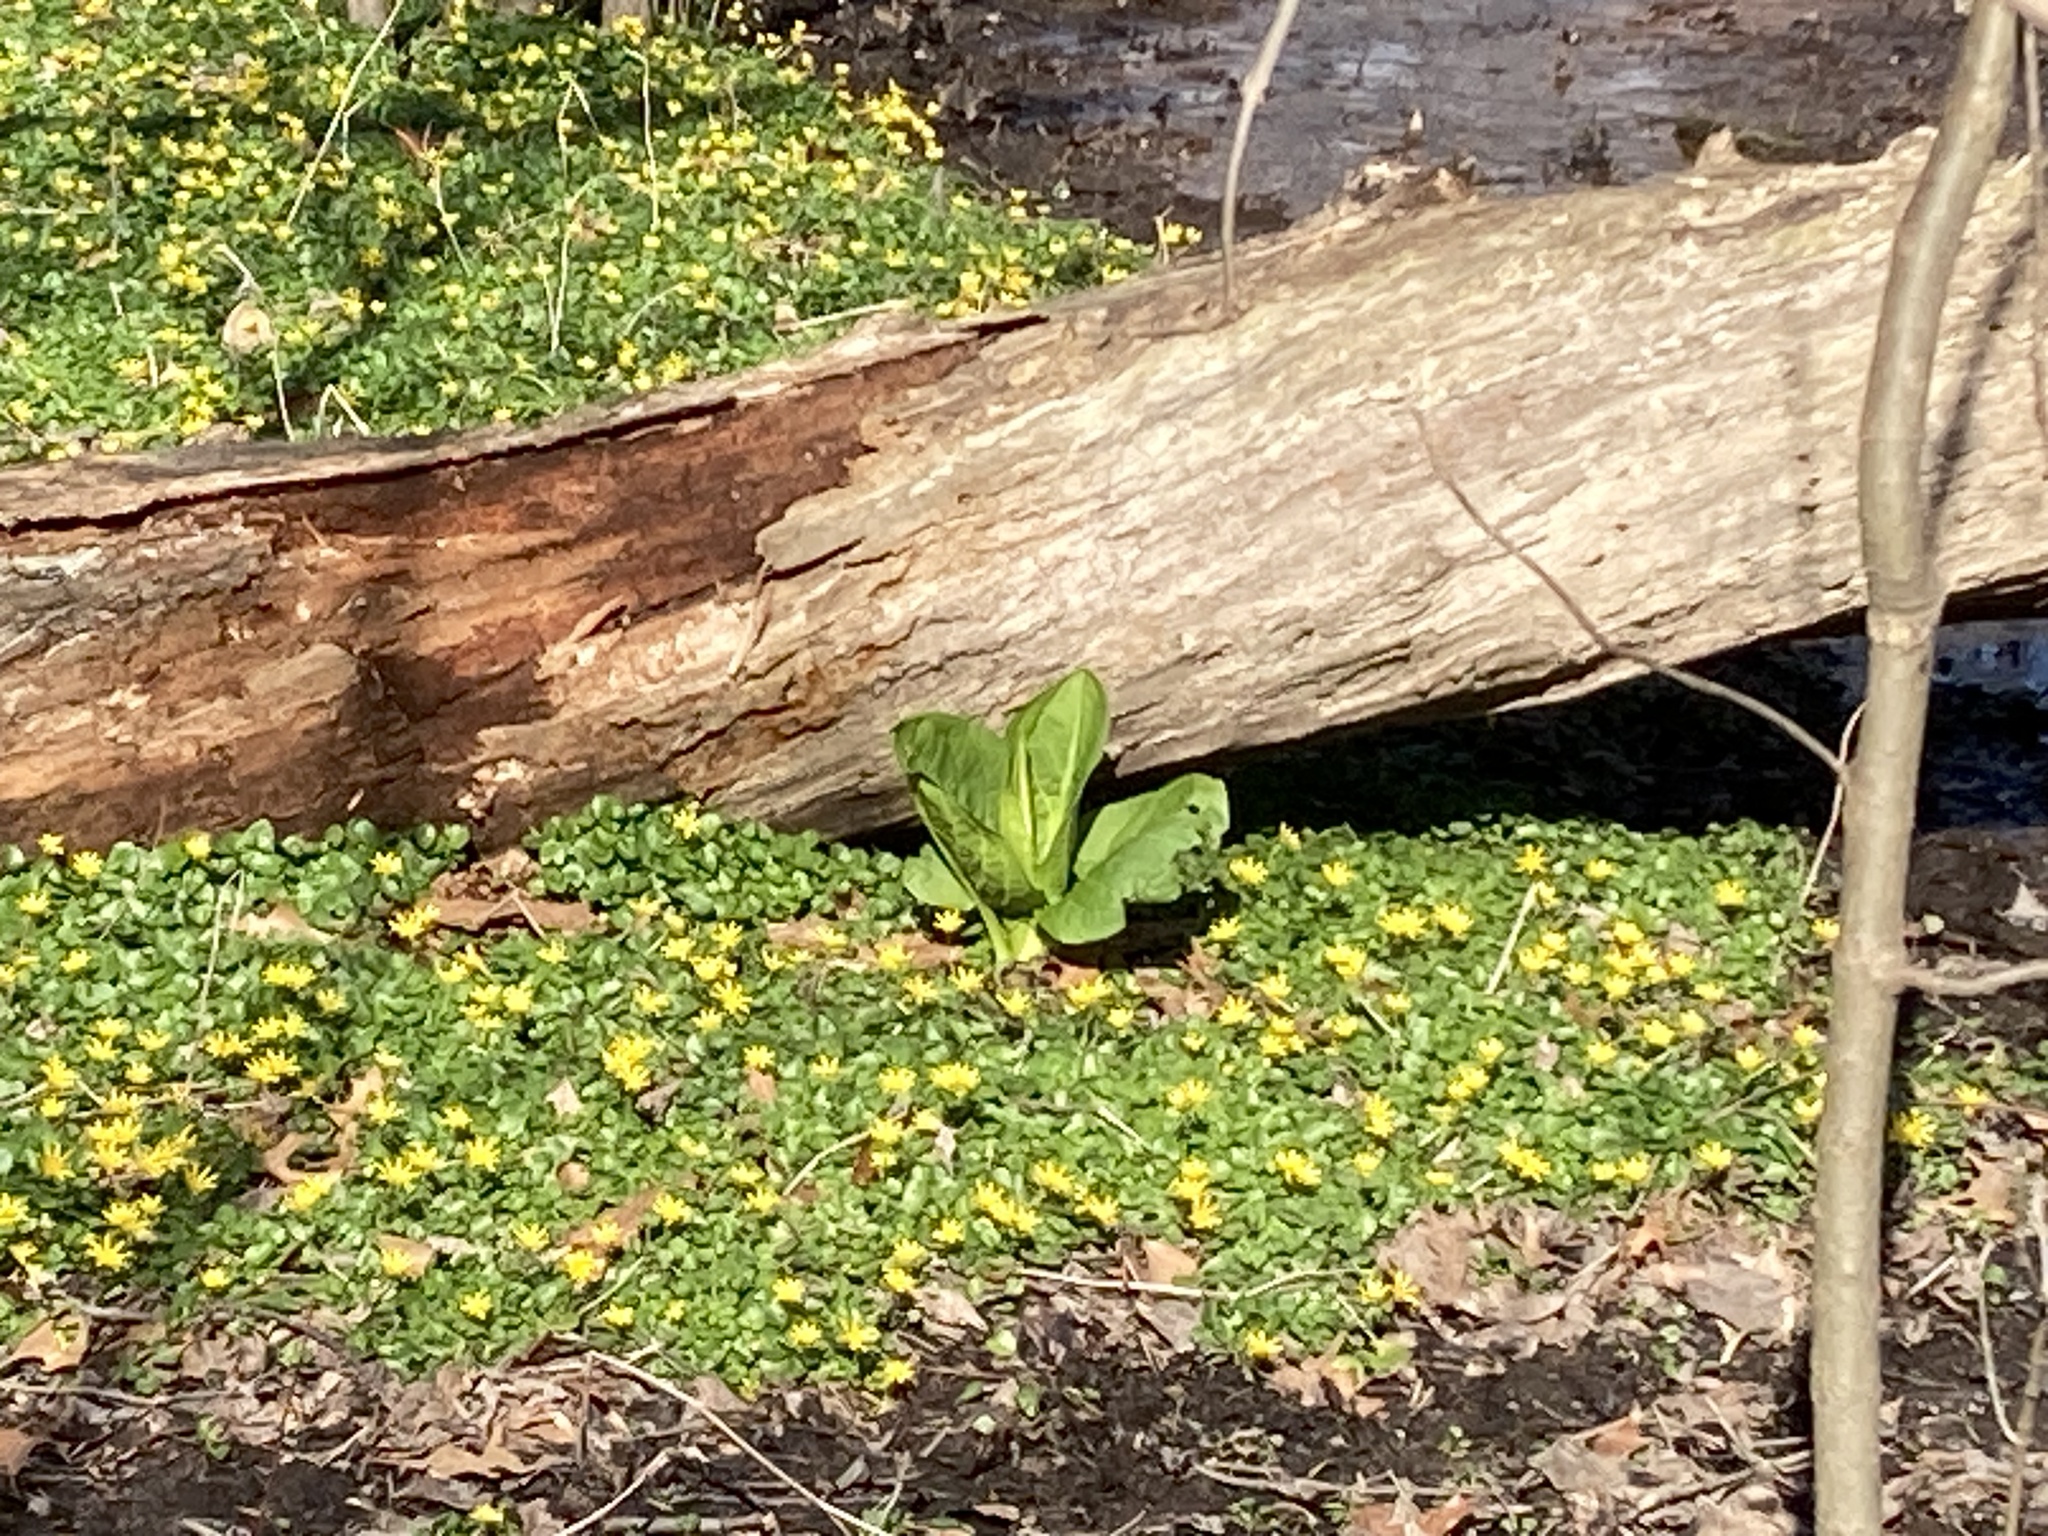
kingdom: Plantae
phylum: Tracheophyta
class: Liliopsida
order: Alismatales
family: Araceae
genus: Symplocarpus
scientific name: Symplocarpus foetidus
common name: Eastern skunk cabbage
